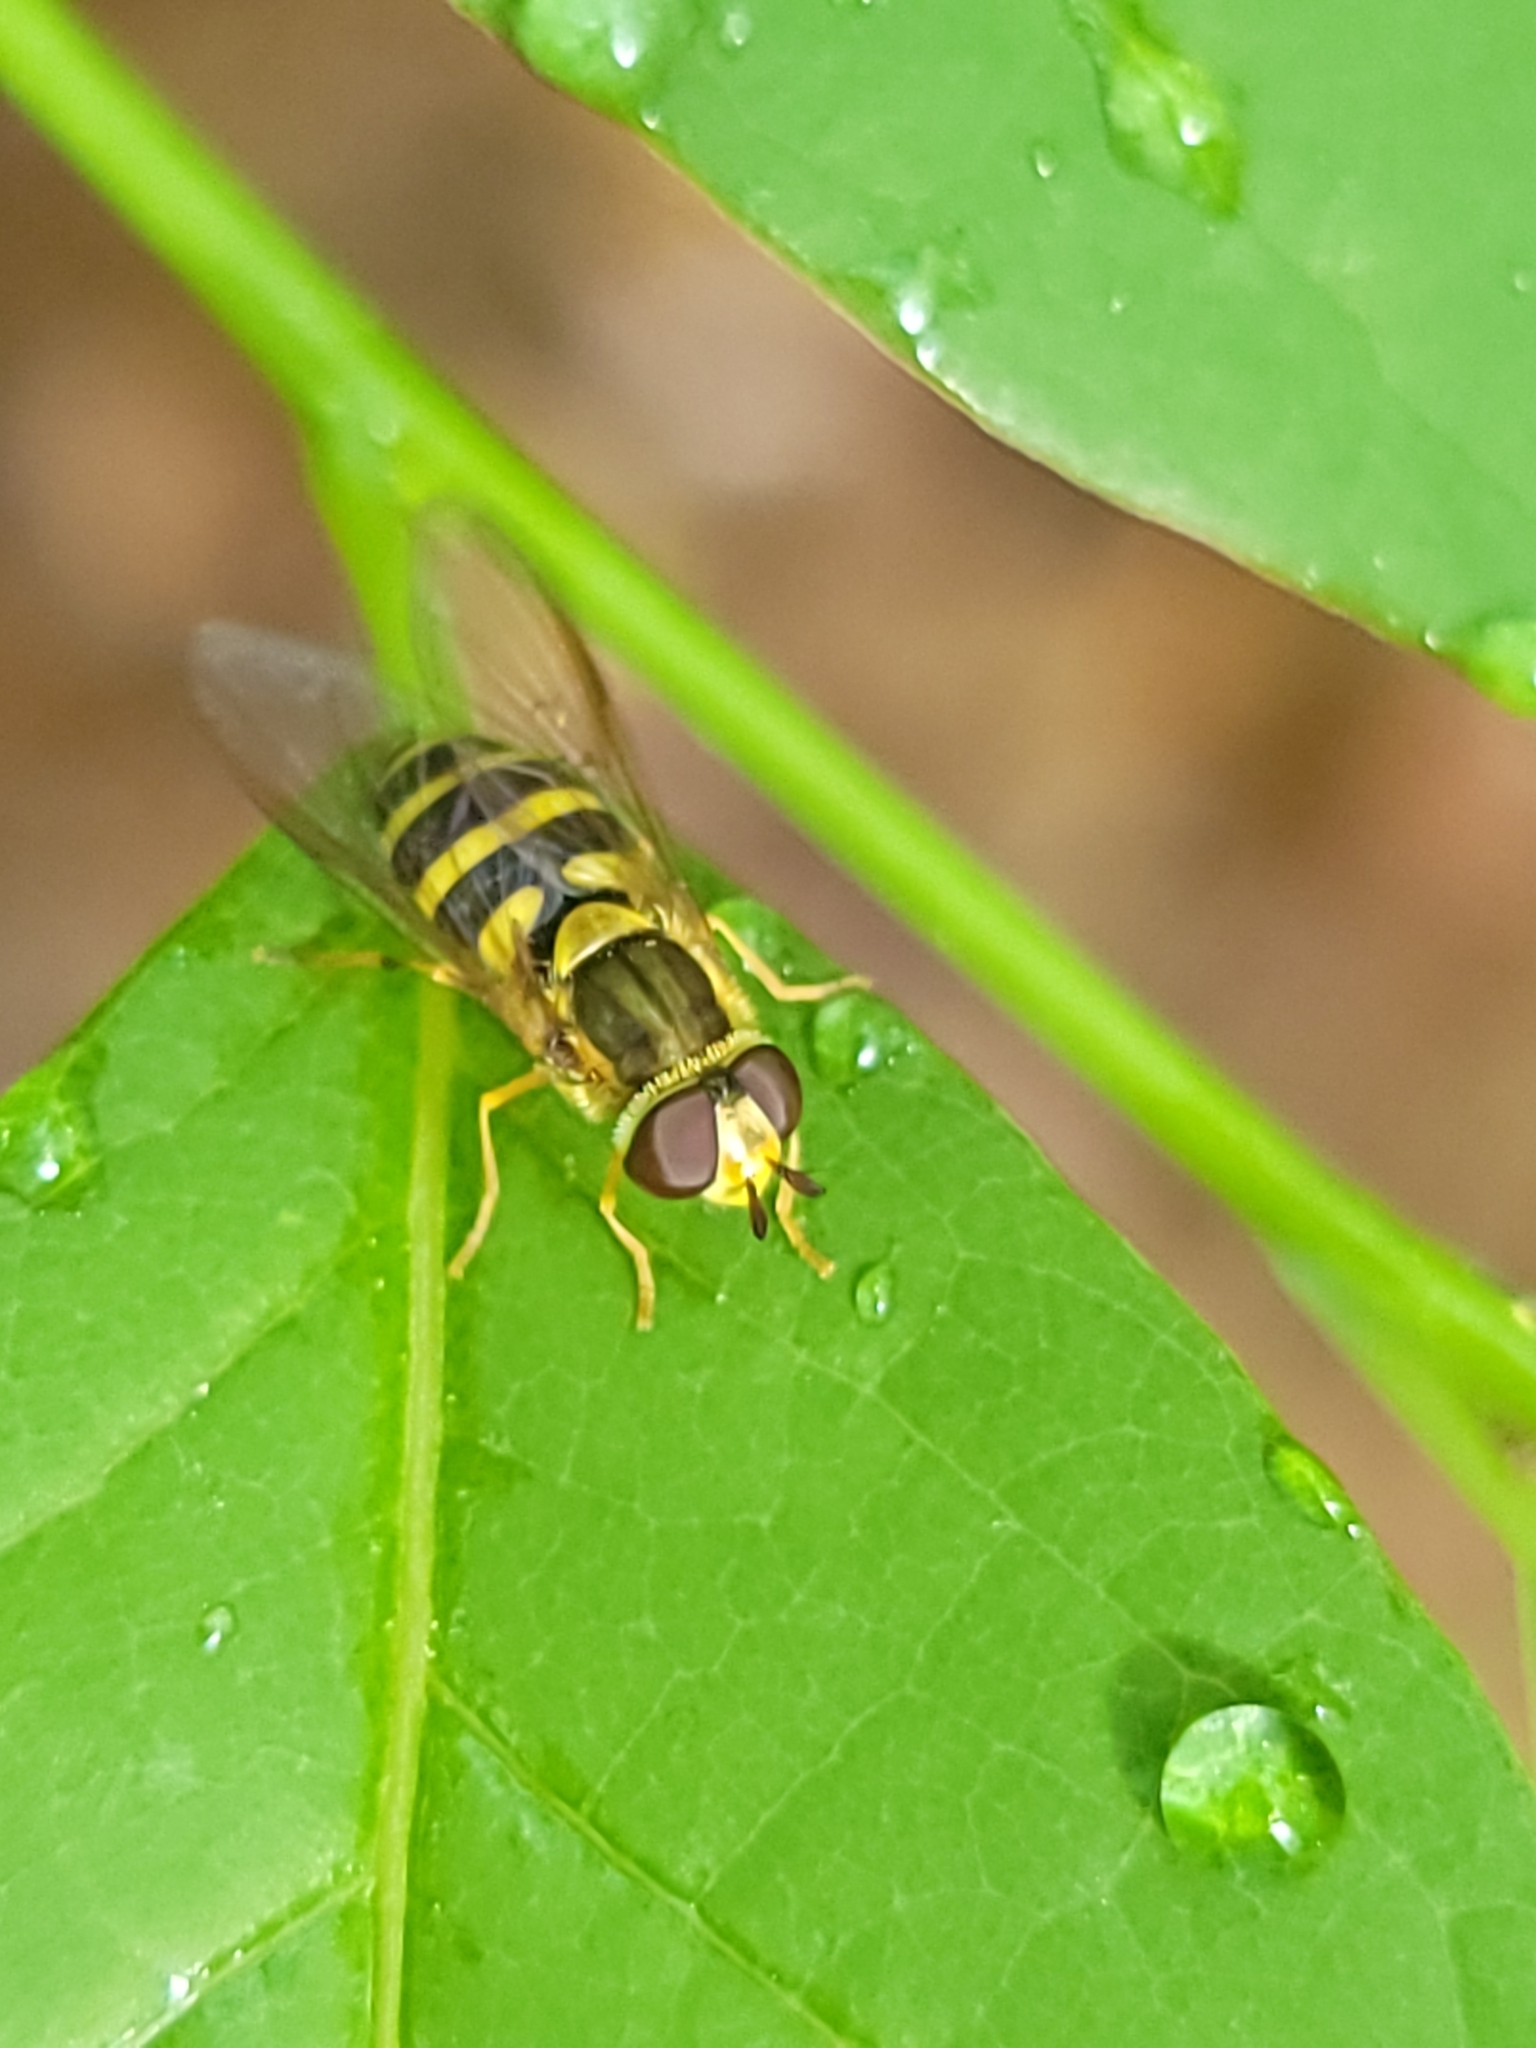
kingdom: Animalia
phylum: Arthropoda
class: Insecta
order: Diptera
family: Syrphidae
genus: Syrphus
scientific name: Syrphus knabi
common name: Eastern flower fly
